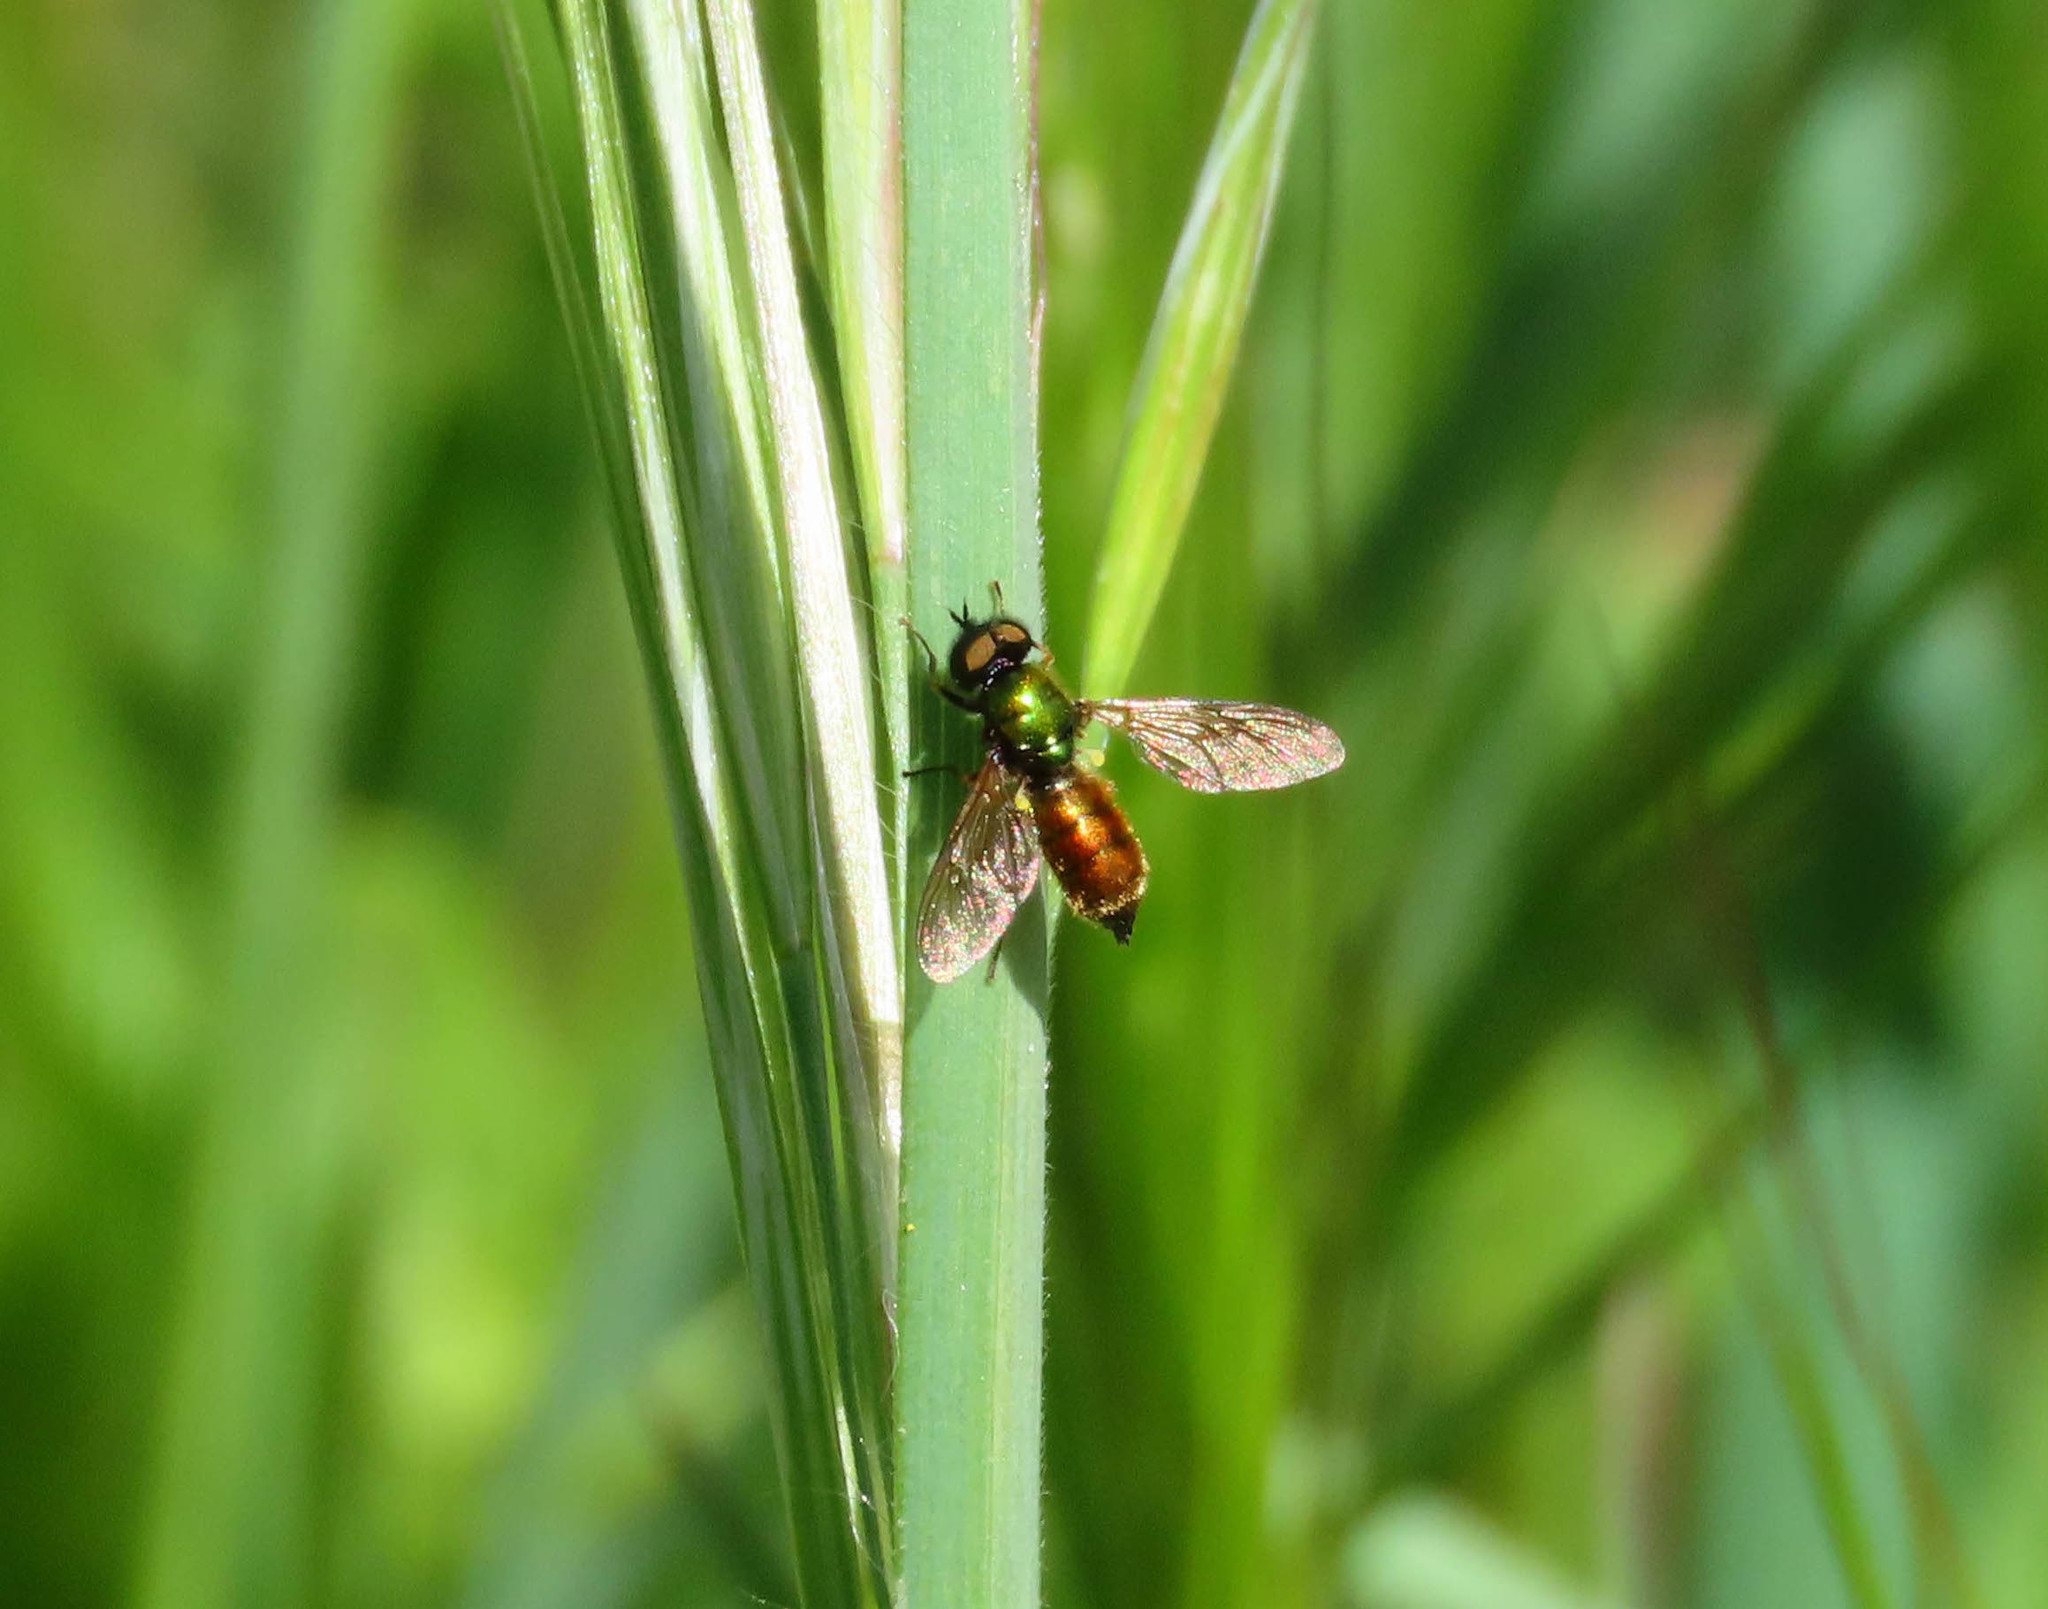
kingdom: Animalia
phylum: Arthropoda
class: Insecta
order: Diptera
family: Stratiomyidae
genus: Chloromyia
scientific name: Chloromyia formosa
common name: Soldier fly
